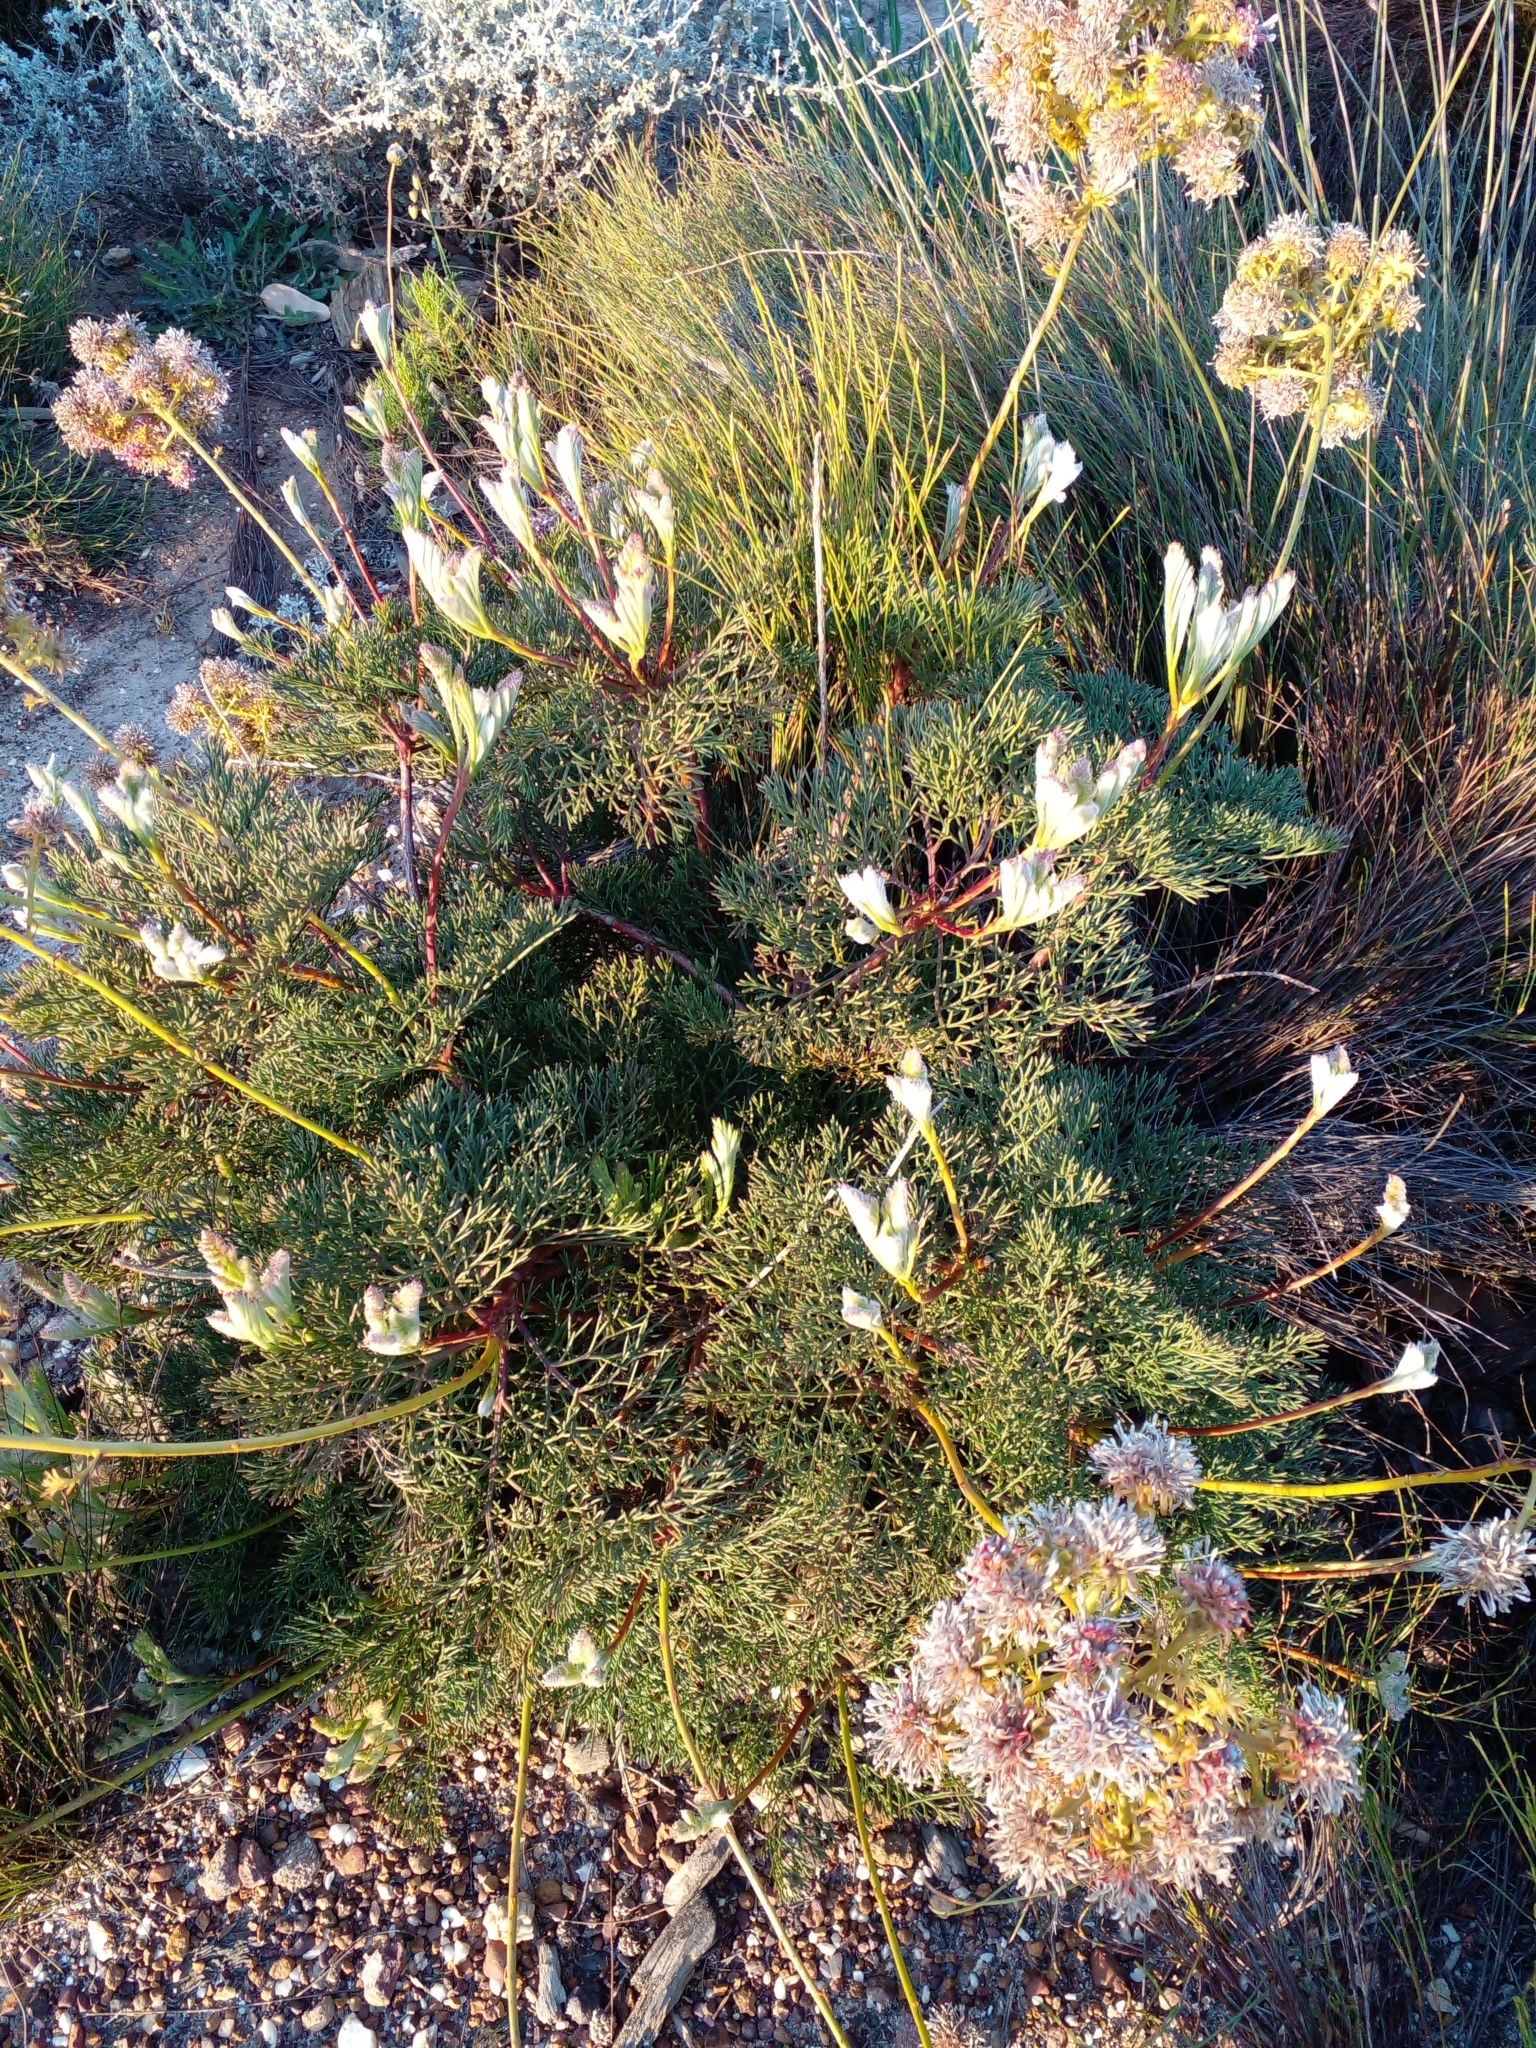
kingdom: Plantae
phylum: Tracheophyta
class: Magnoliopsida
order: Proteales
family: Proteaceae
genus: Serruria
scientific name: Serruria elongata
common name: Long-stalk spiderhead
